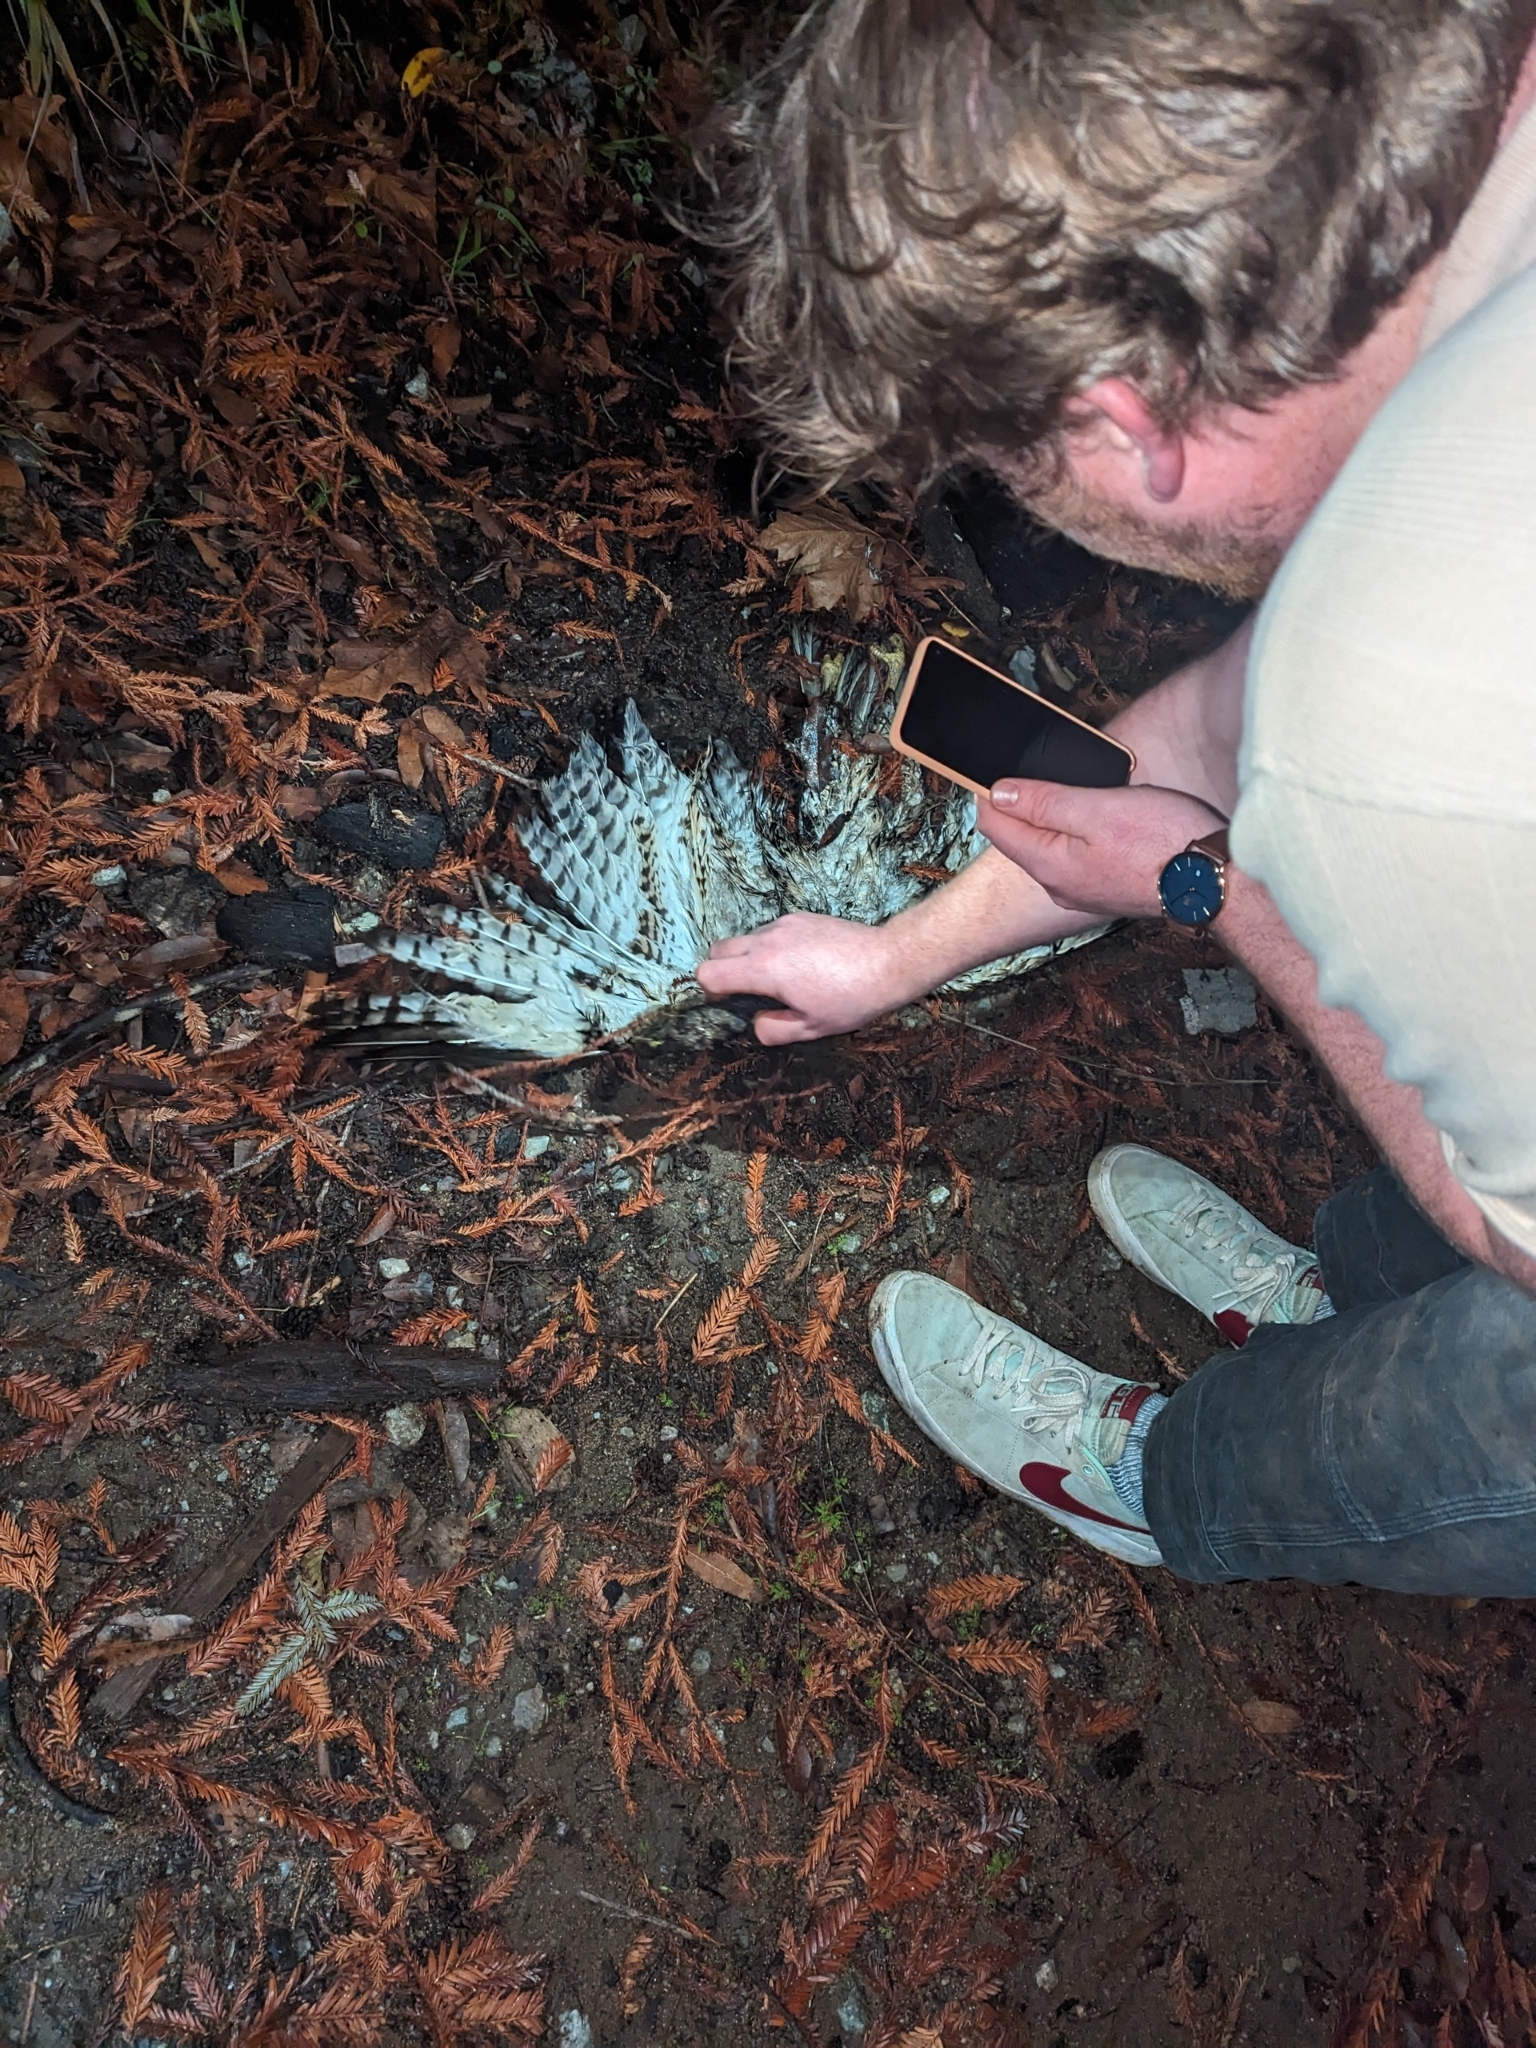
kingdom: Animalia
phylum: Chordata
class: Aves
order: Accipitriformes
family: Accipitridae
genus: Buteo
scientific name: Buteo jamaicensis
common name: Red-tailed hawk
